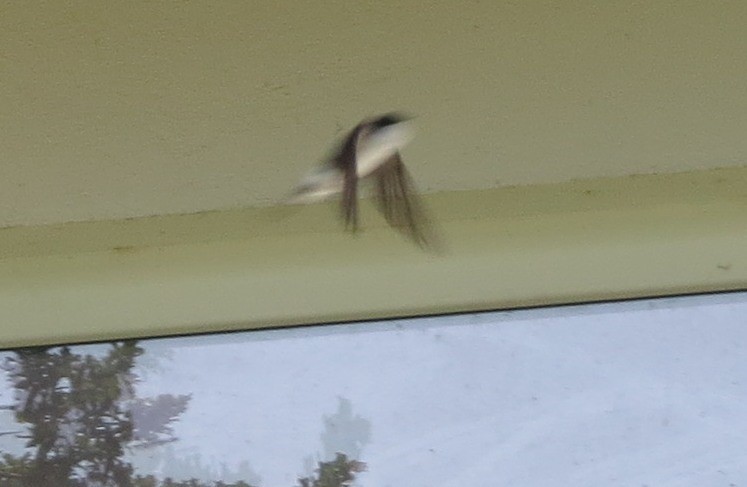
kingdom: Animalia
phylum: Chordata
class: Aves
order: Passeriformes
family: Hirundinidae
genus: Delichon
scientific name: Delichon urbicum
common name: Common house martin
